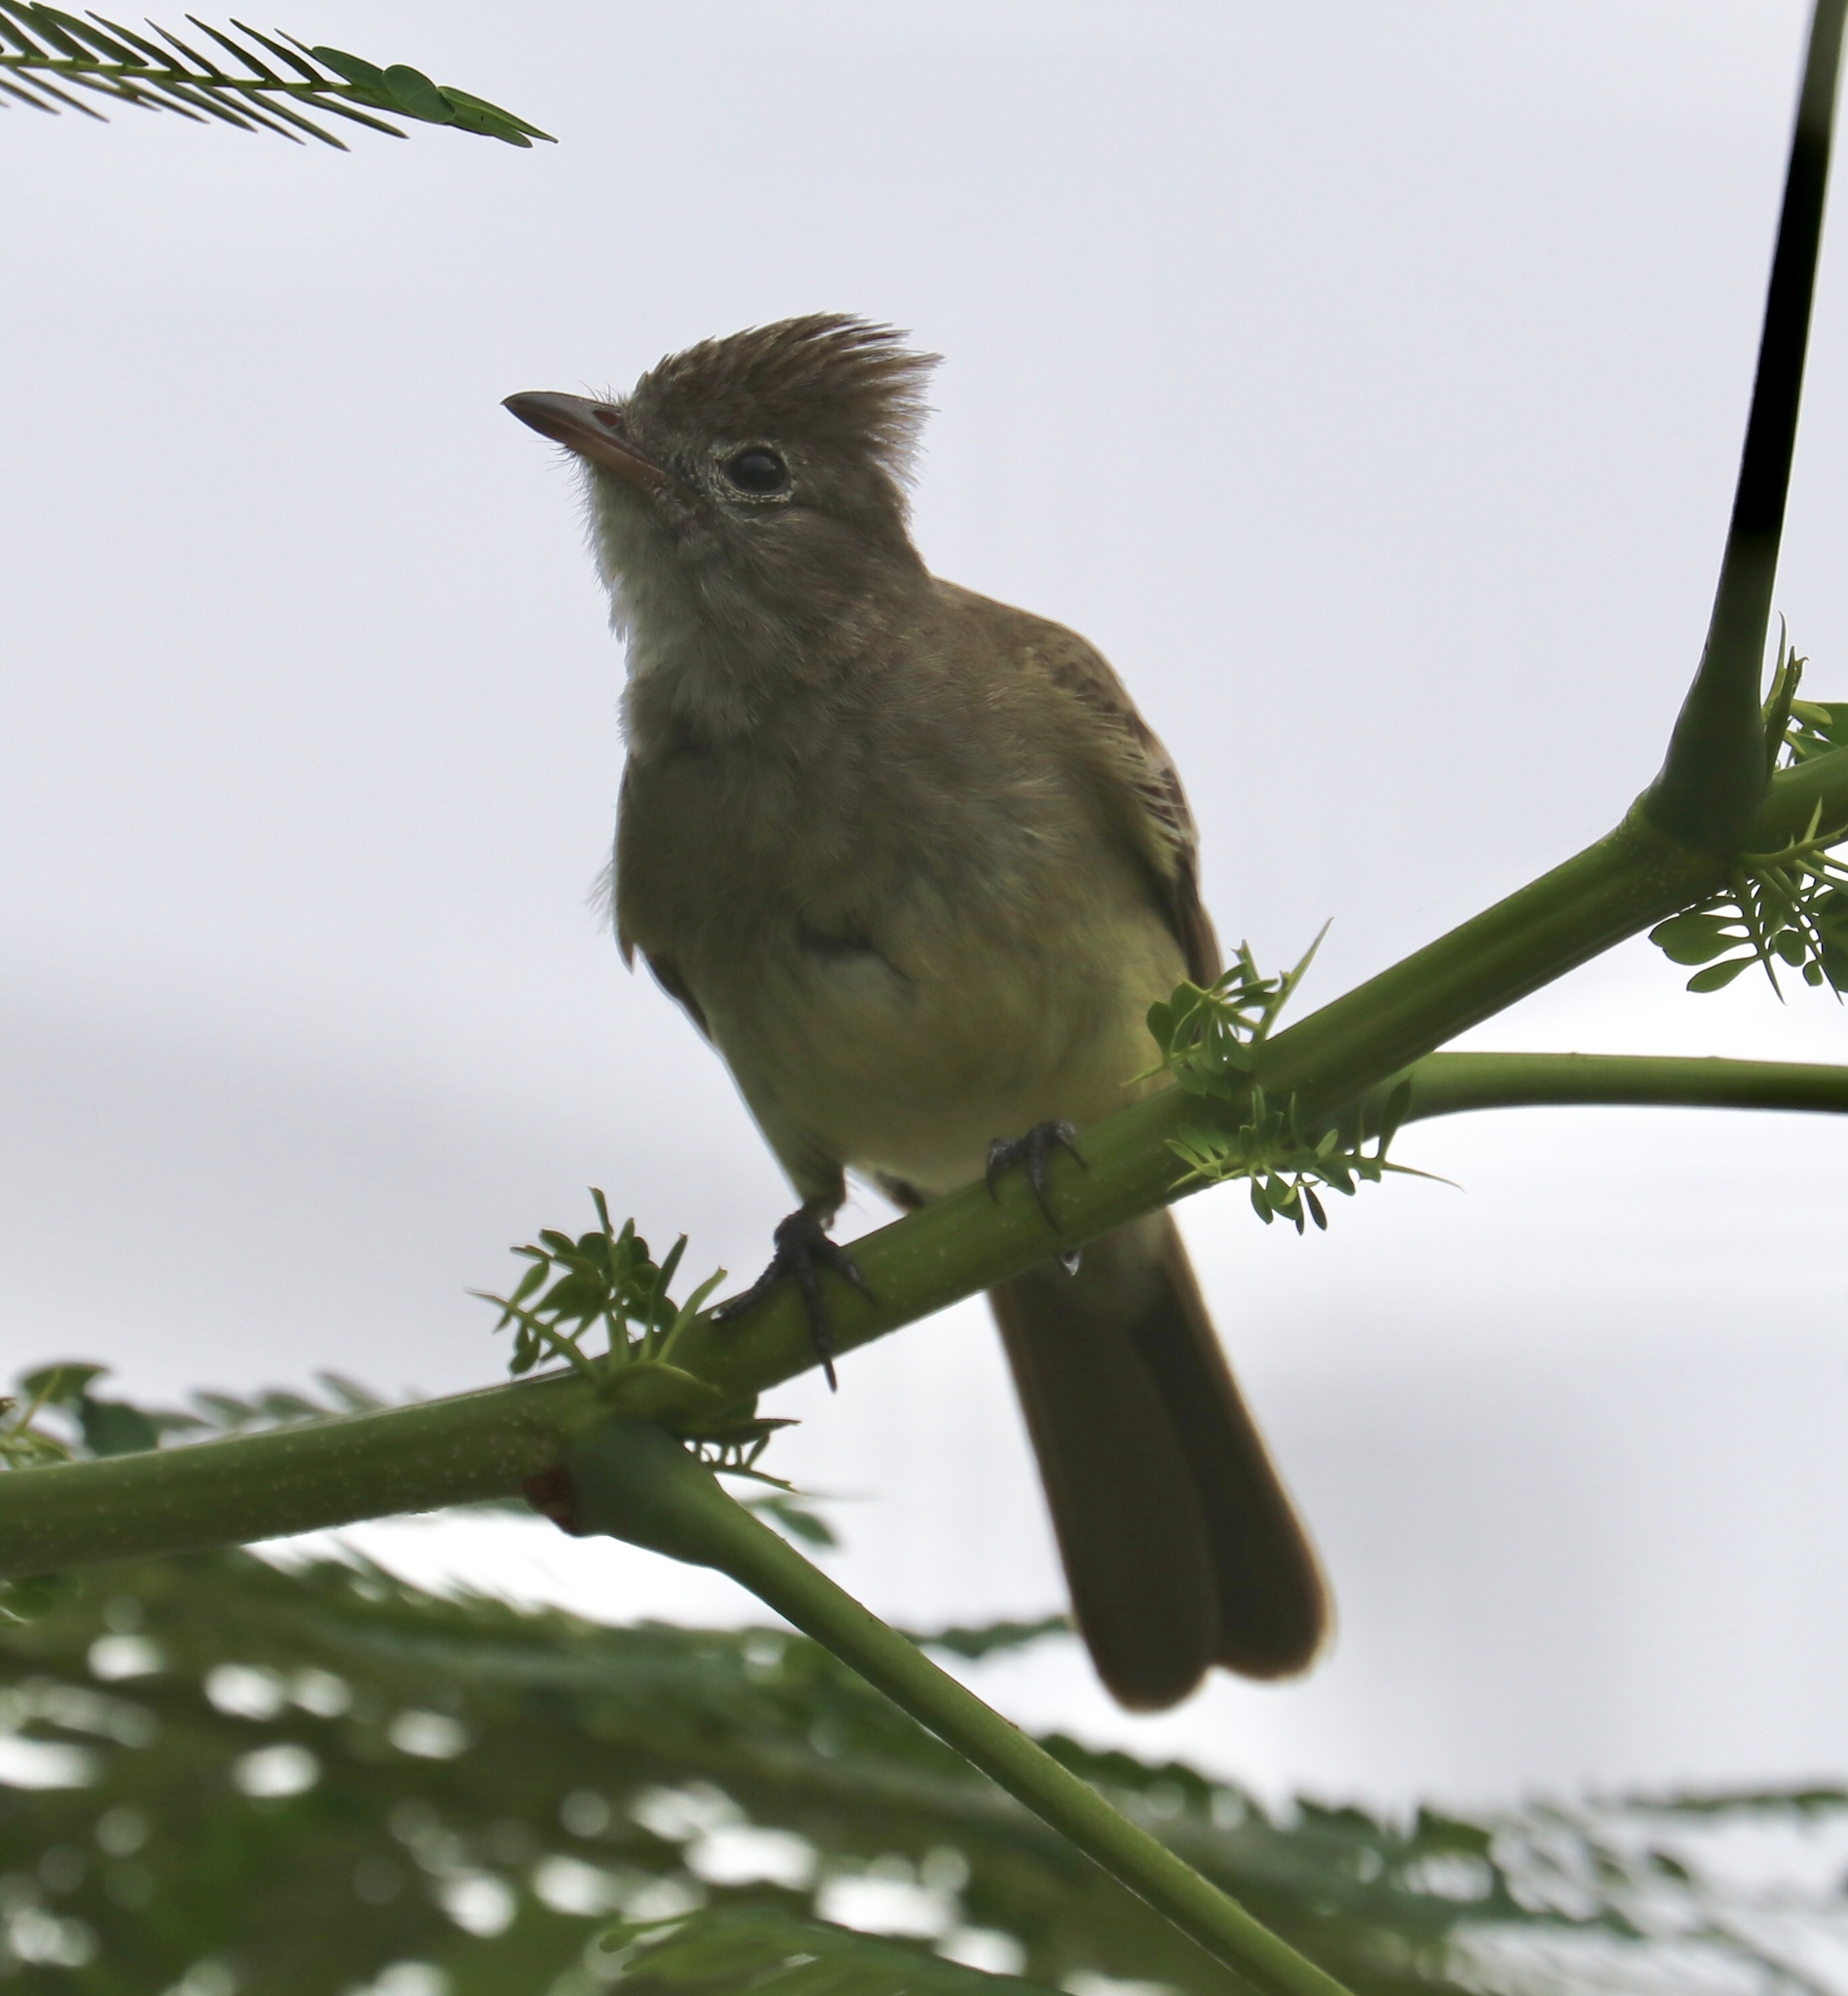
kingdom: Animalia
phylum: Chordata
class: Aves
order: Passeriformes
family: Tyrannidae
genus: Elaenia
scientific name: Elaenia flavogaster
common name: Yellow-bellied elaenia
